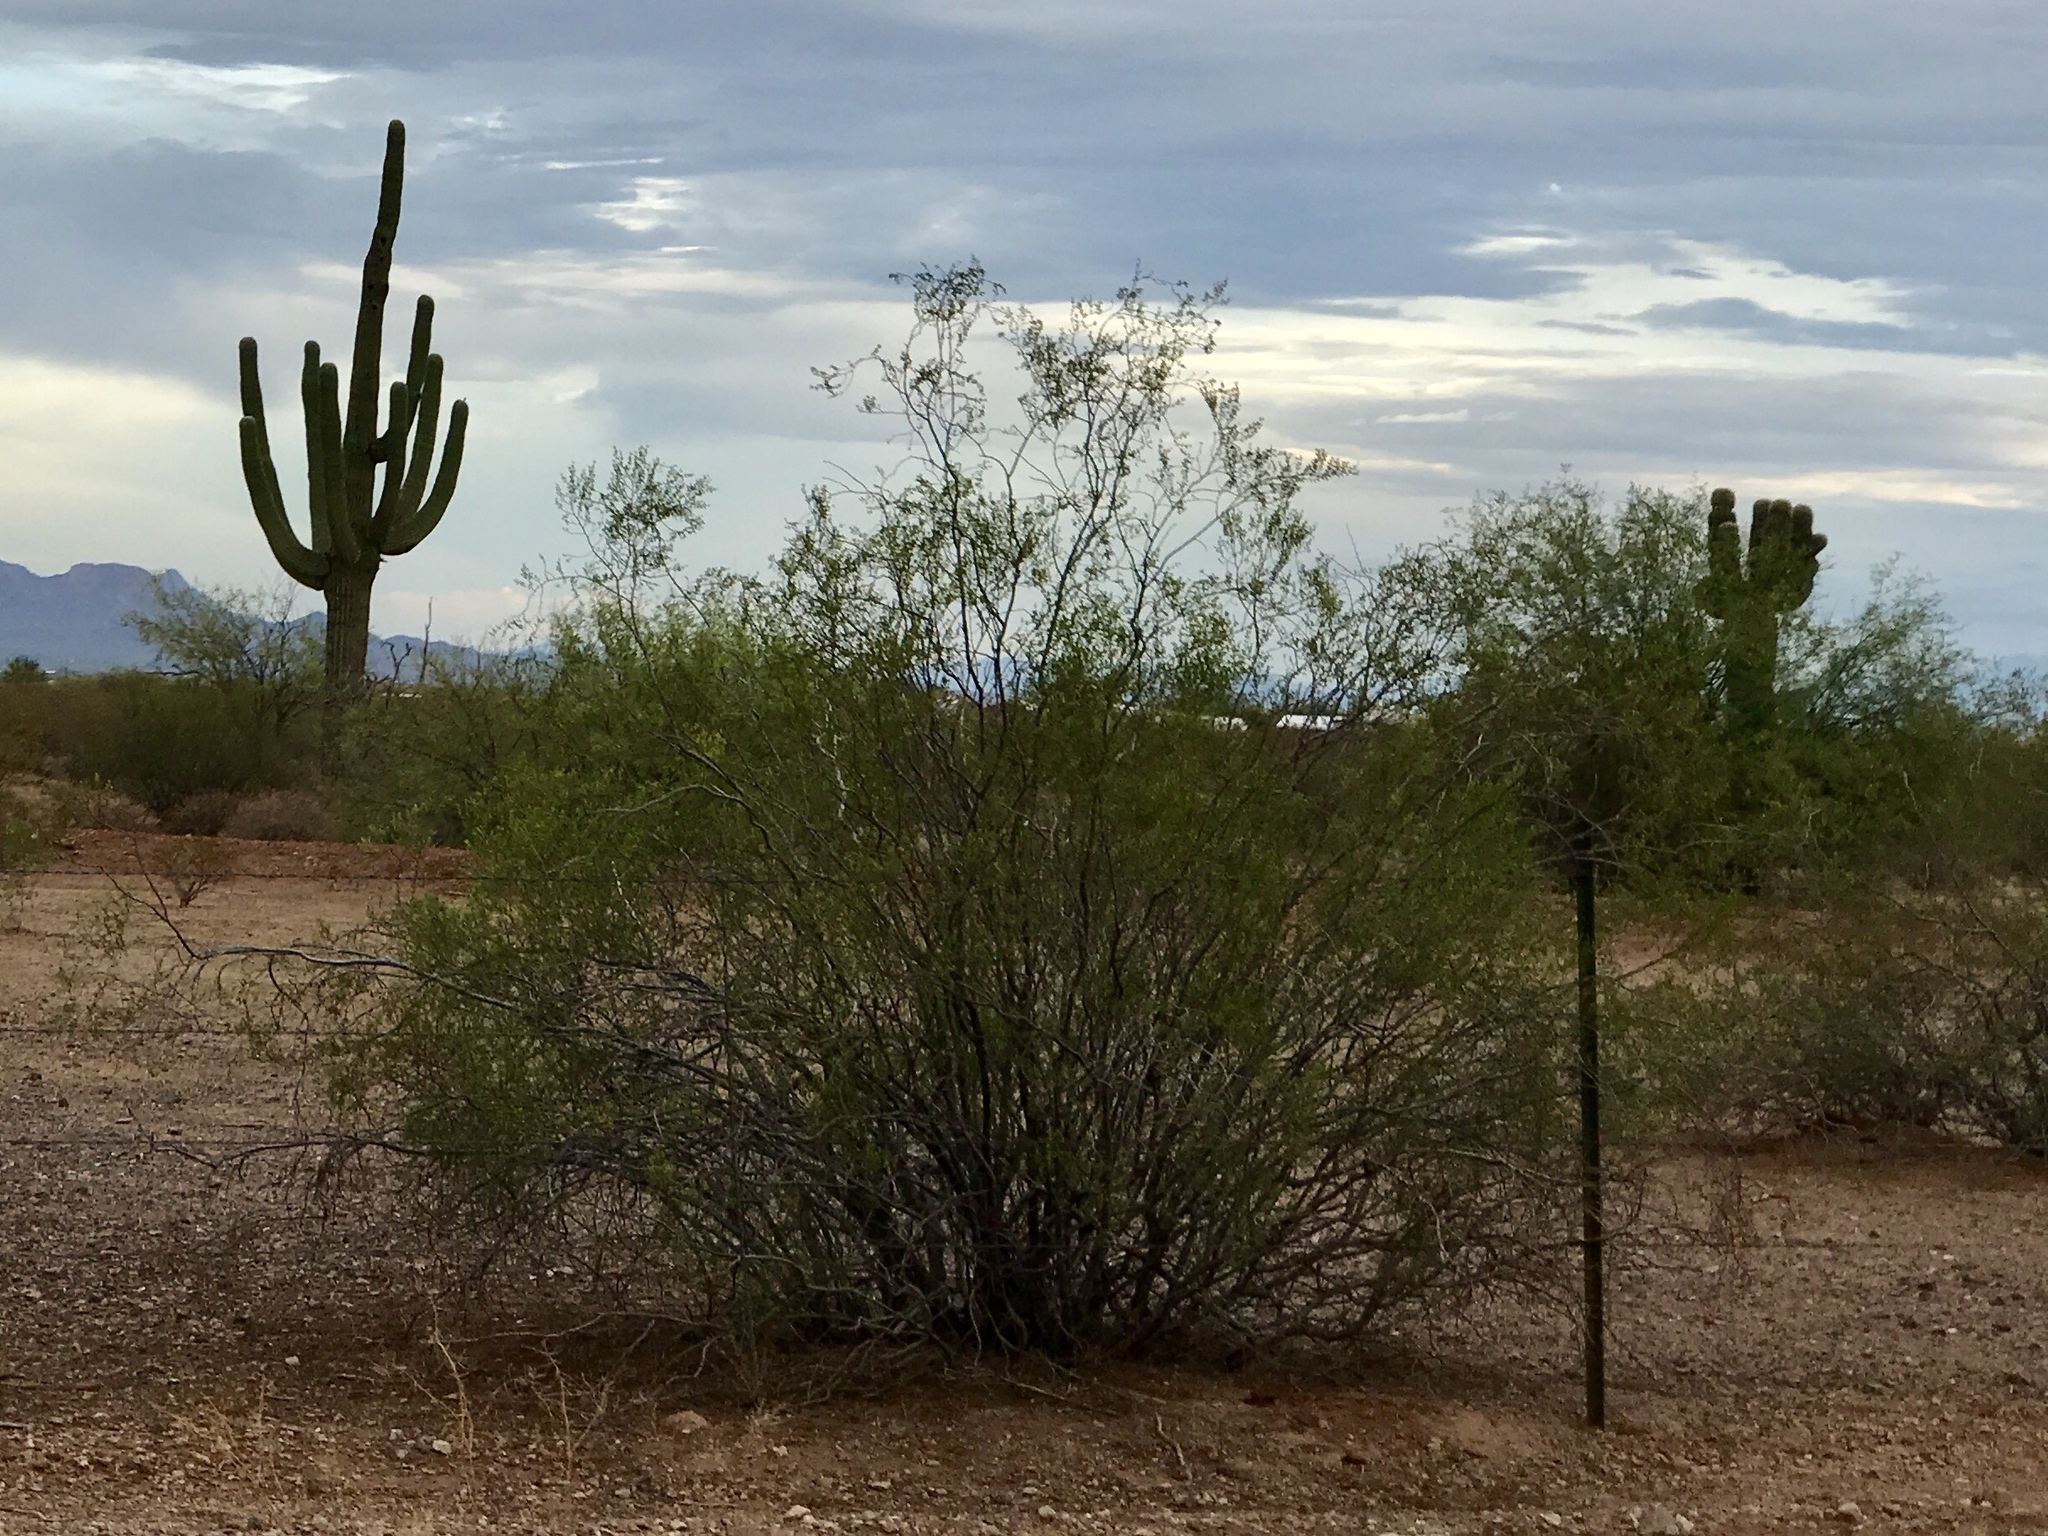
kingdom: Plantae
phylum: Tracheophyta
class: Magnoliopsida
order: Zygophyllales
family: Zygophyllaceae
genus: Larrea
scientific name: Larrea tridentata
